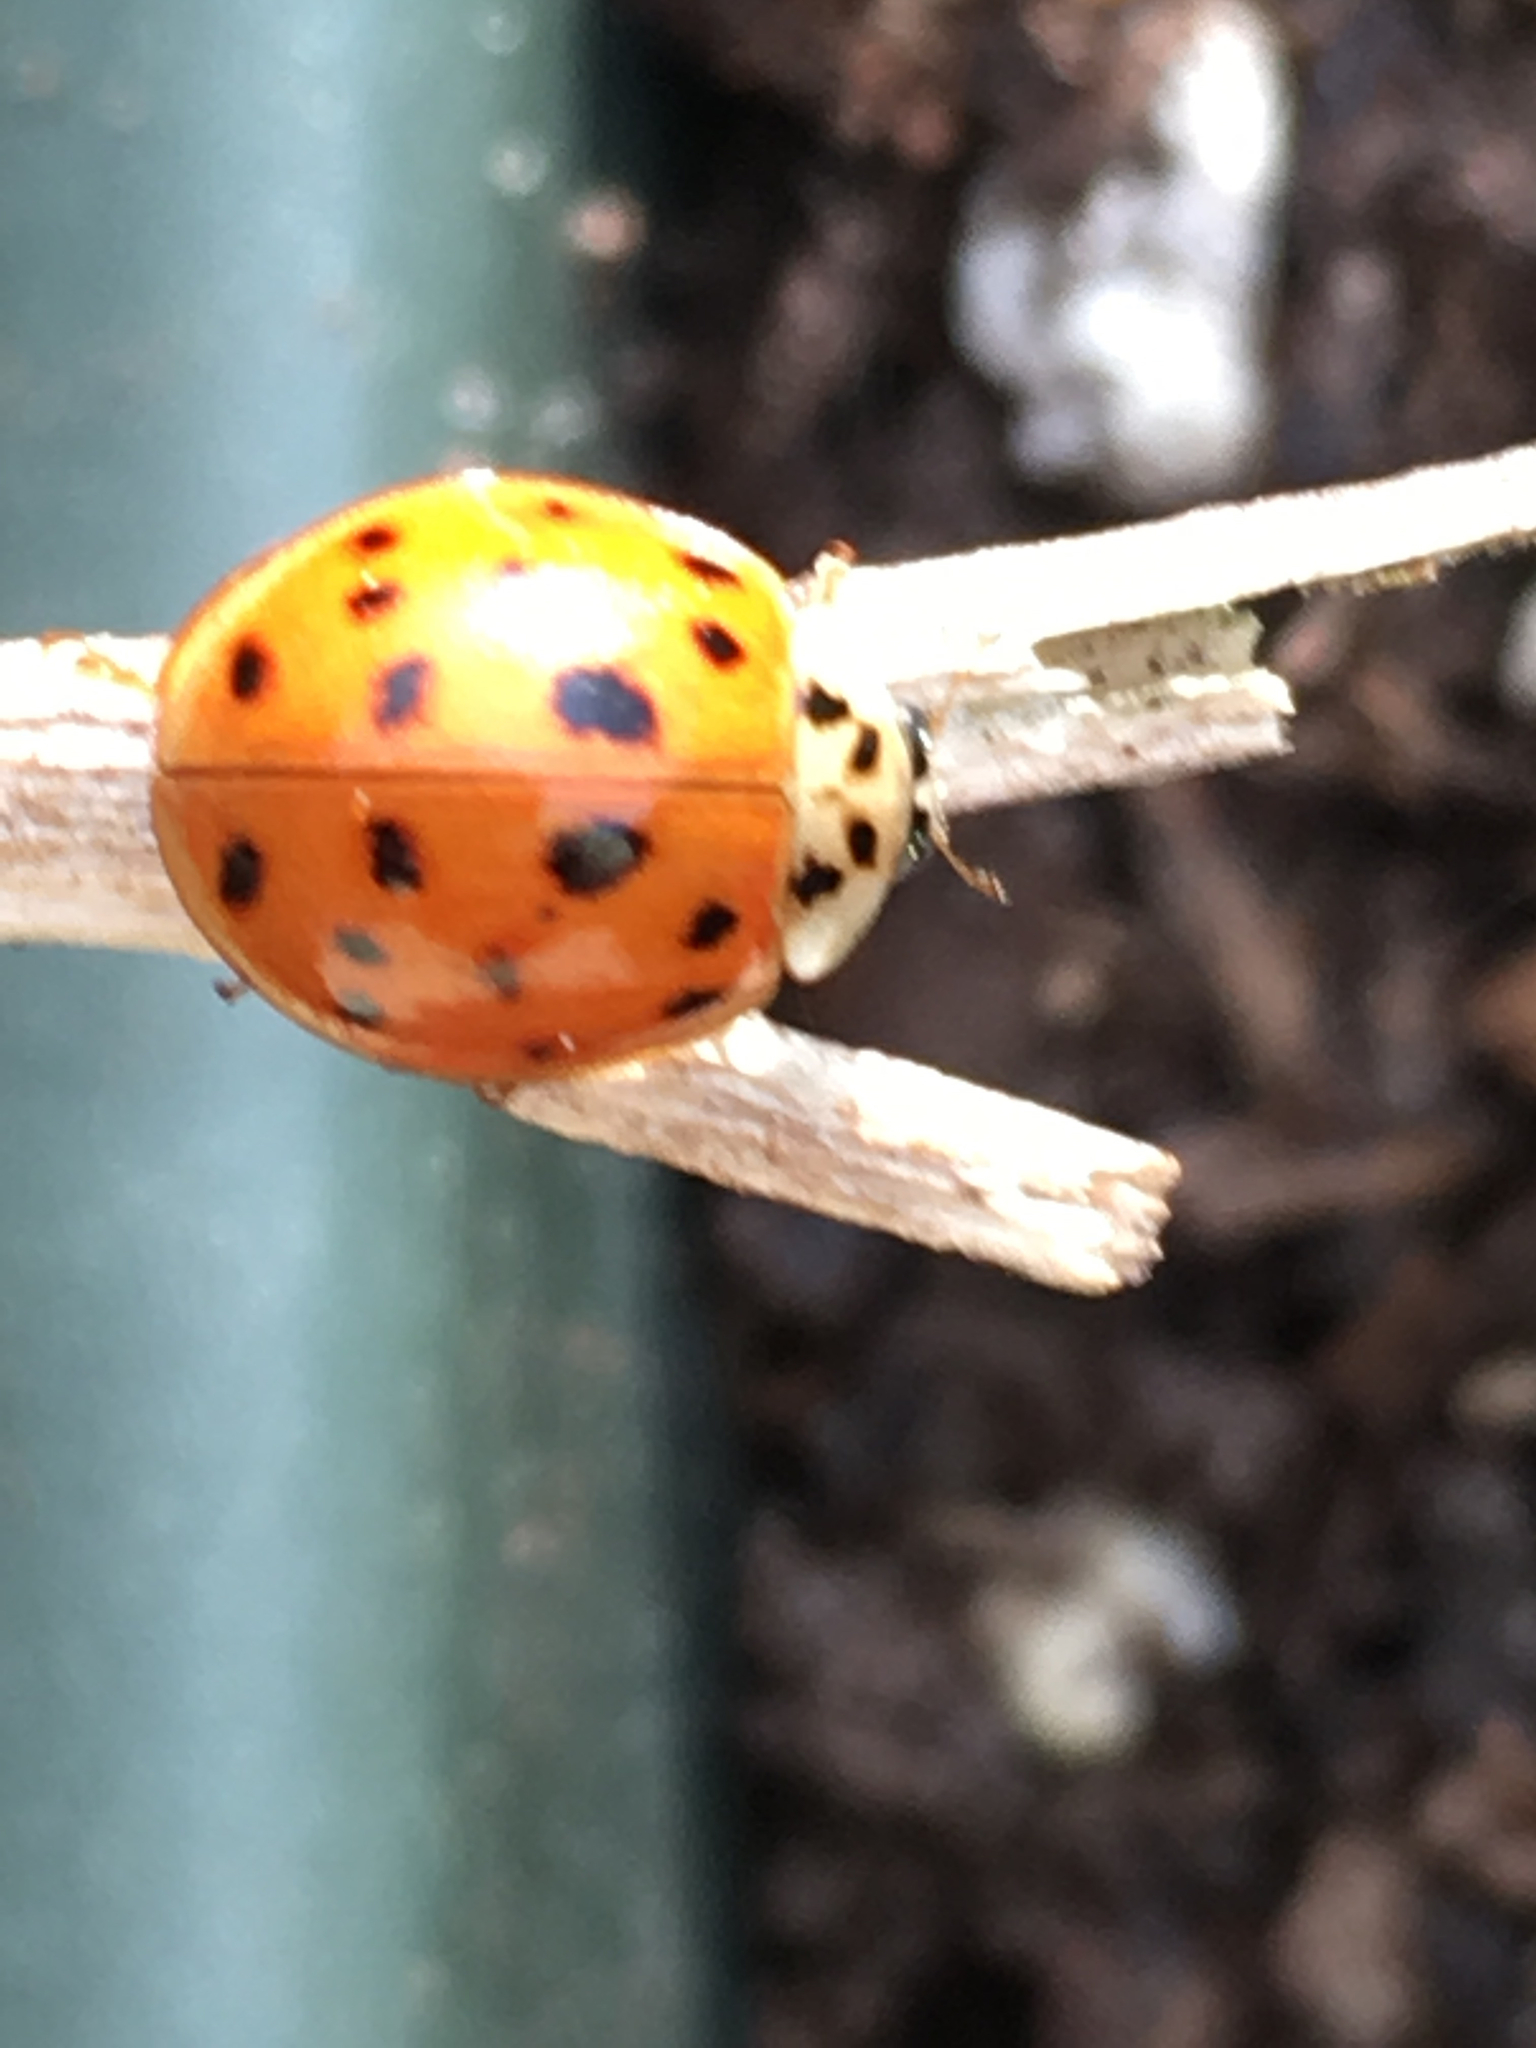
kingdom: Animalia
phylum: Arthropoda
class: Insecta
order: Coleoptera
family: Coccinellidae
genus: Harmonia
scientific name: Harmonia axyridis
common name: Harlequin ladybird
